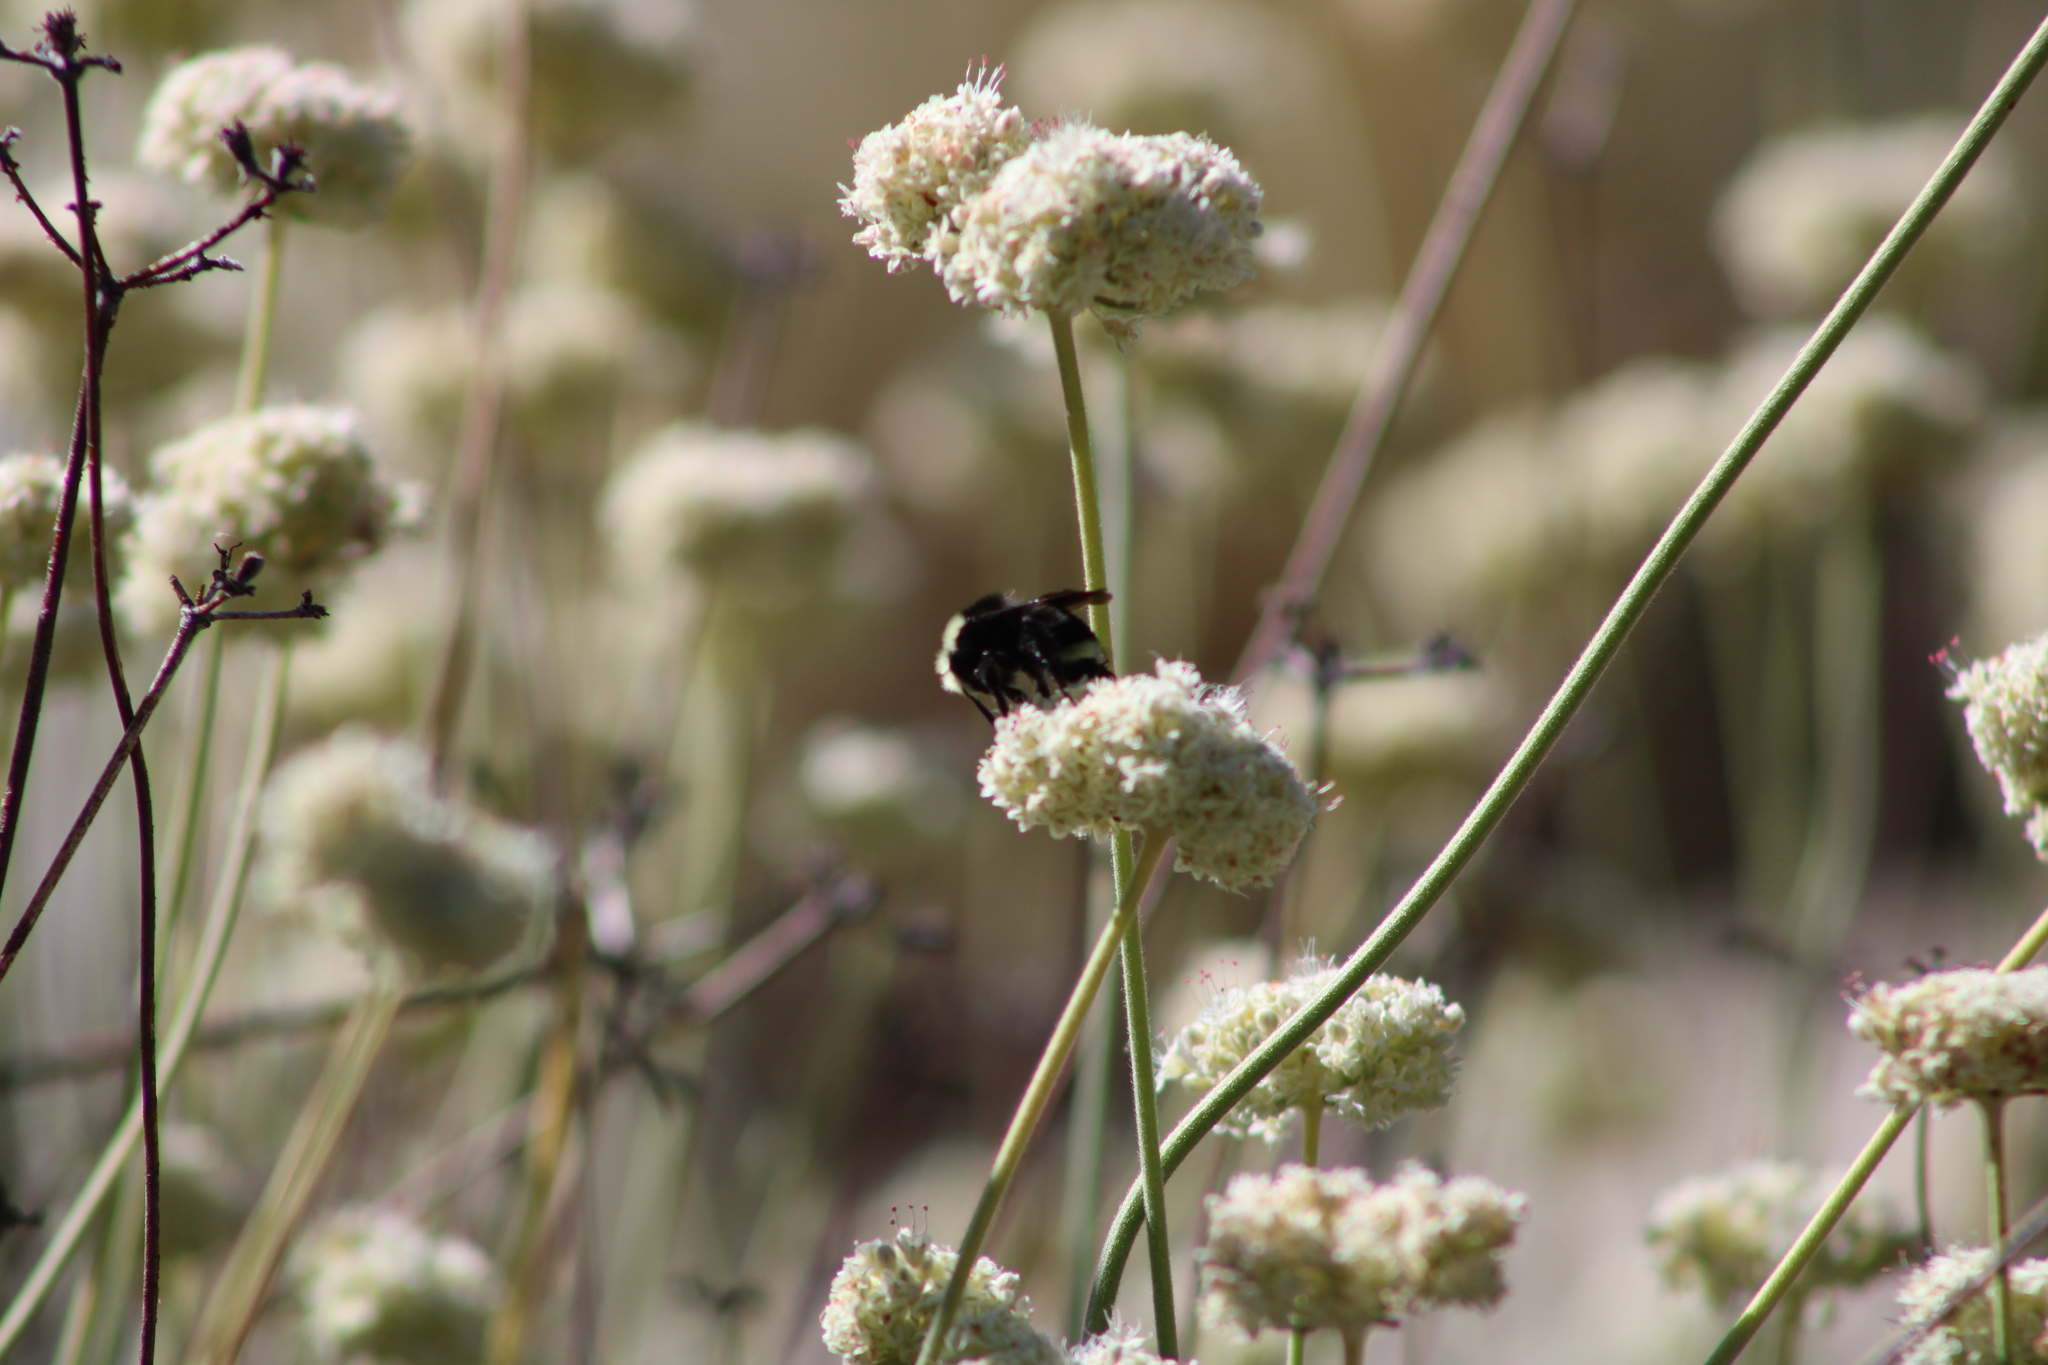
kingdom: Animalia
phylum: Arthropoda
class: Insecta
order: Hymenoptera
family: Apidae
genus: Bombus
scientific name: Bombus vosnesenskii
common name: Vosnesensky bumble bee
